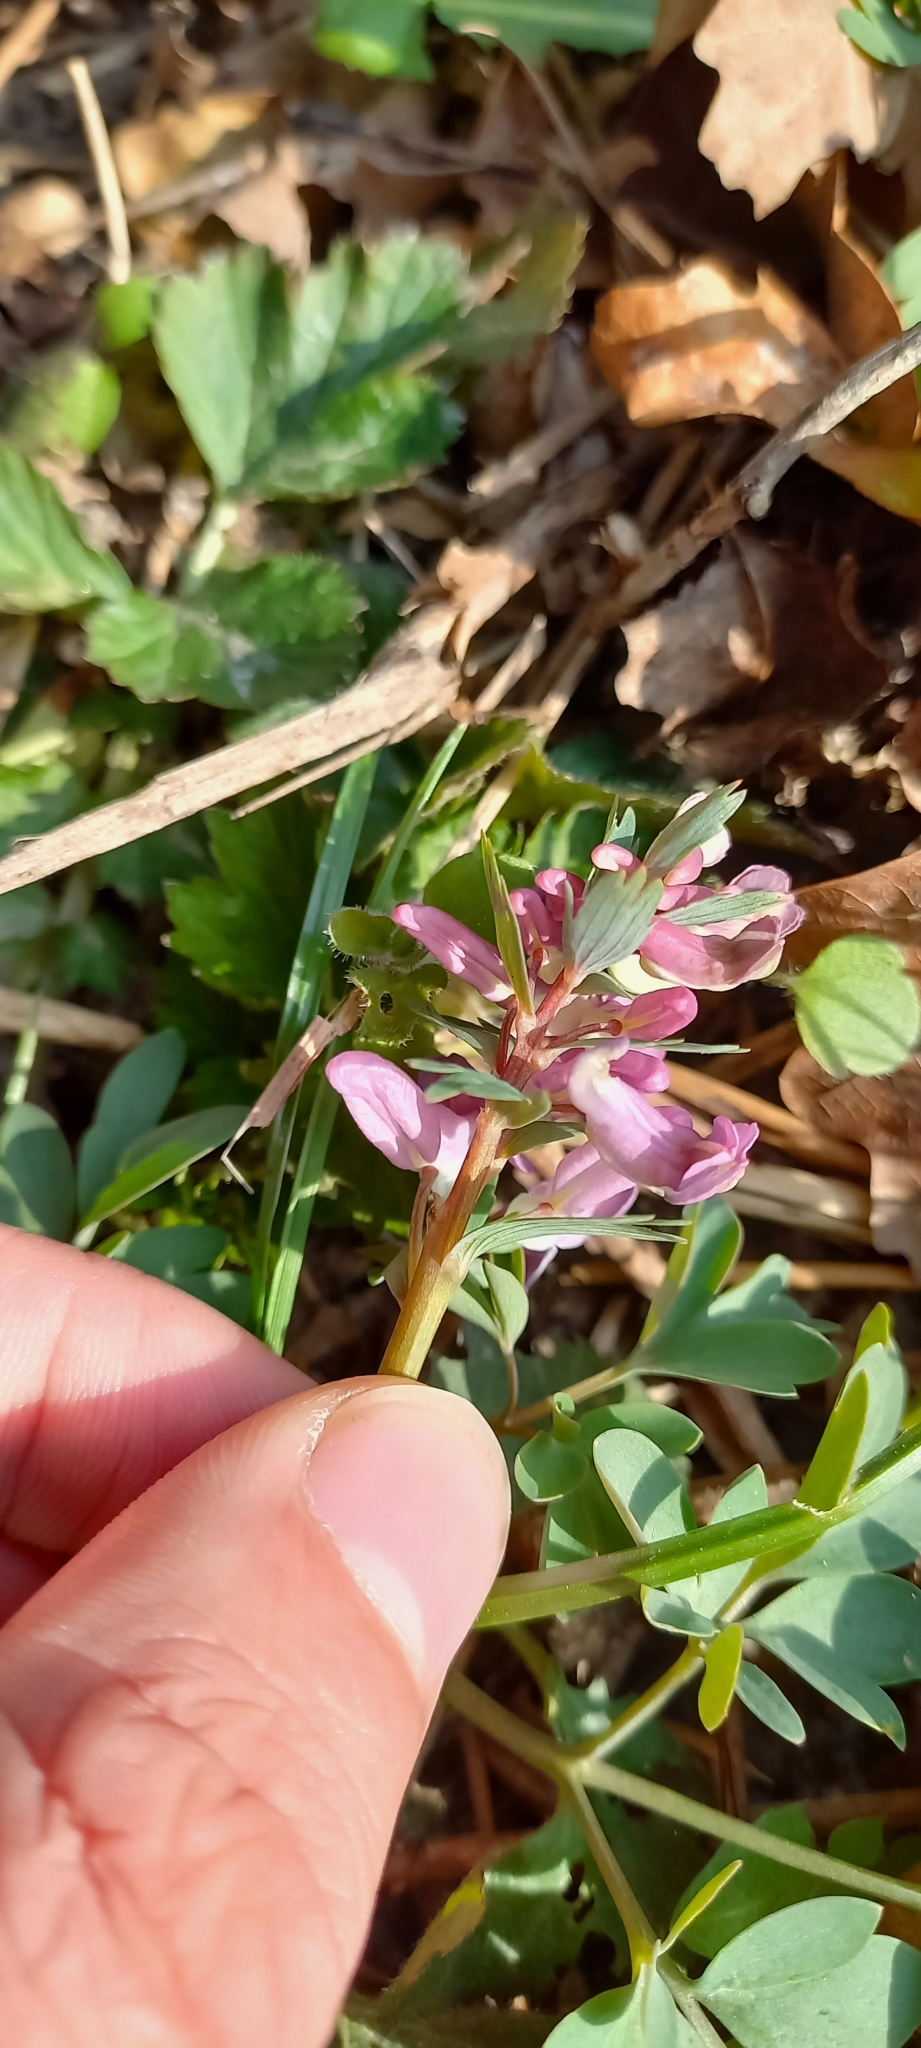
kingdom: Plantae
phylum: Tracheophyta
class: Magnoliopsida
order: Ranunculales
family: Papaveraceae
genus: Corydalis
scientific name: Corydalis solida
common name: Bird-in-a-bush
